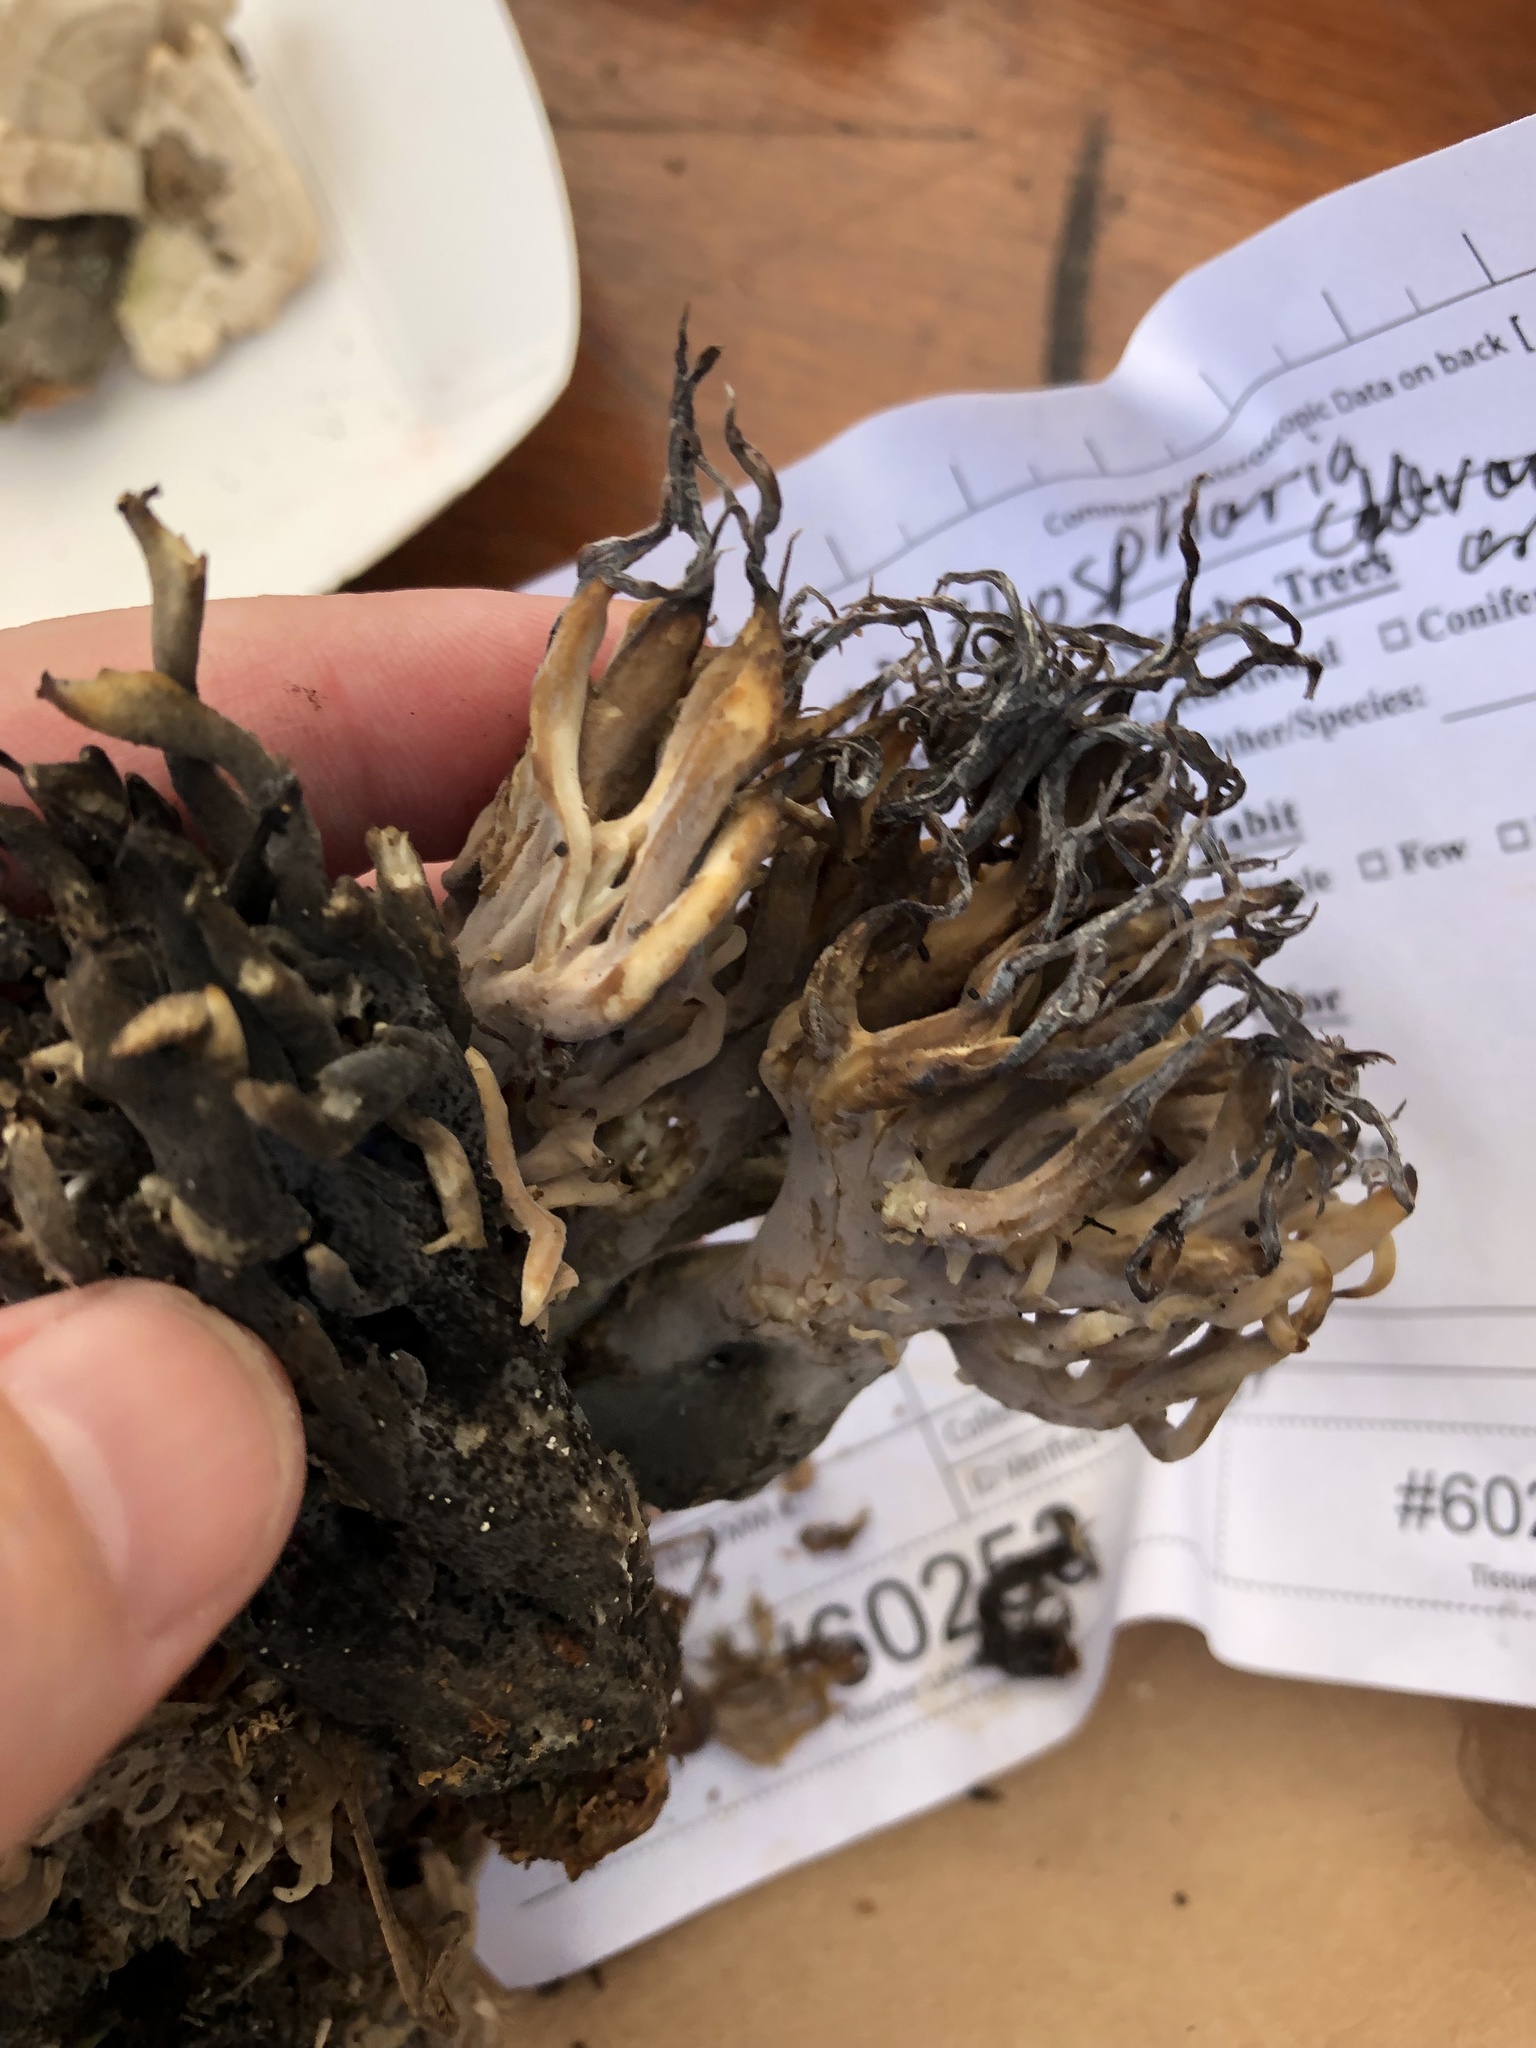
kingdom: Fungi
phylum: Ascomycota
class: Sordariomycetes
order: Sordariales
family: Helminthosphaeriaceae
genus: Helminthosphaeria
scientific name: Helminthosphaeria clavariarum
